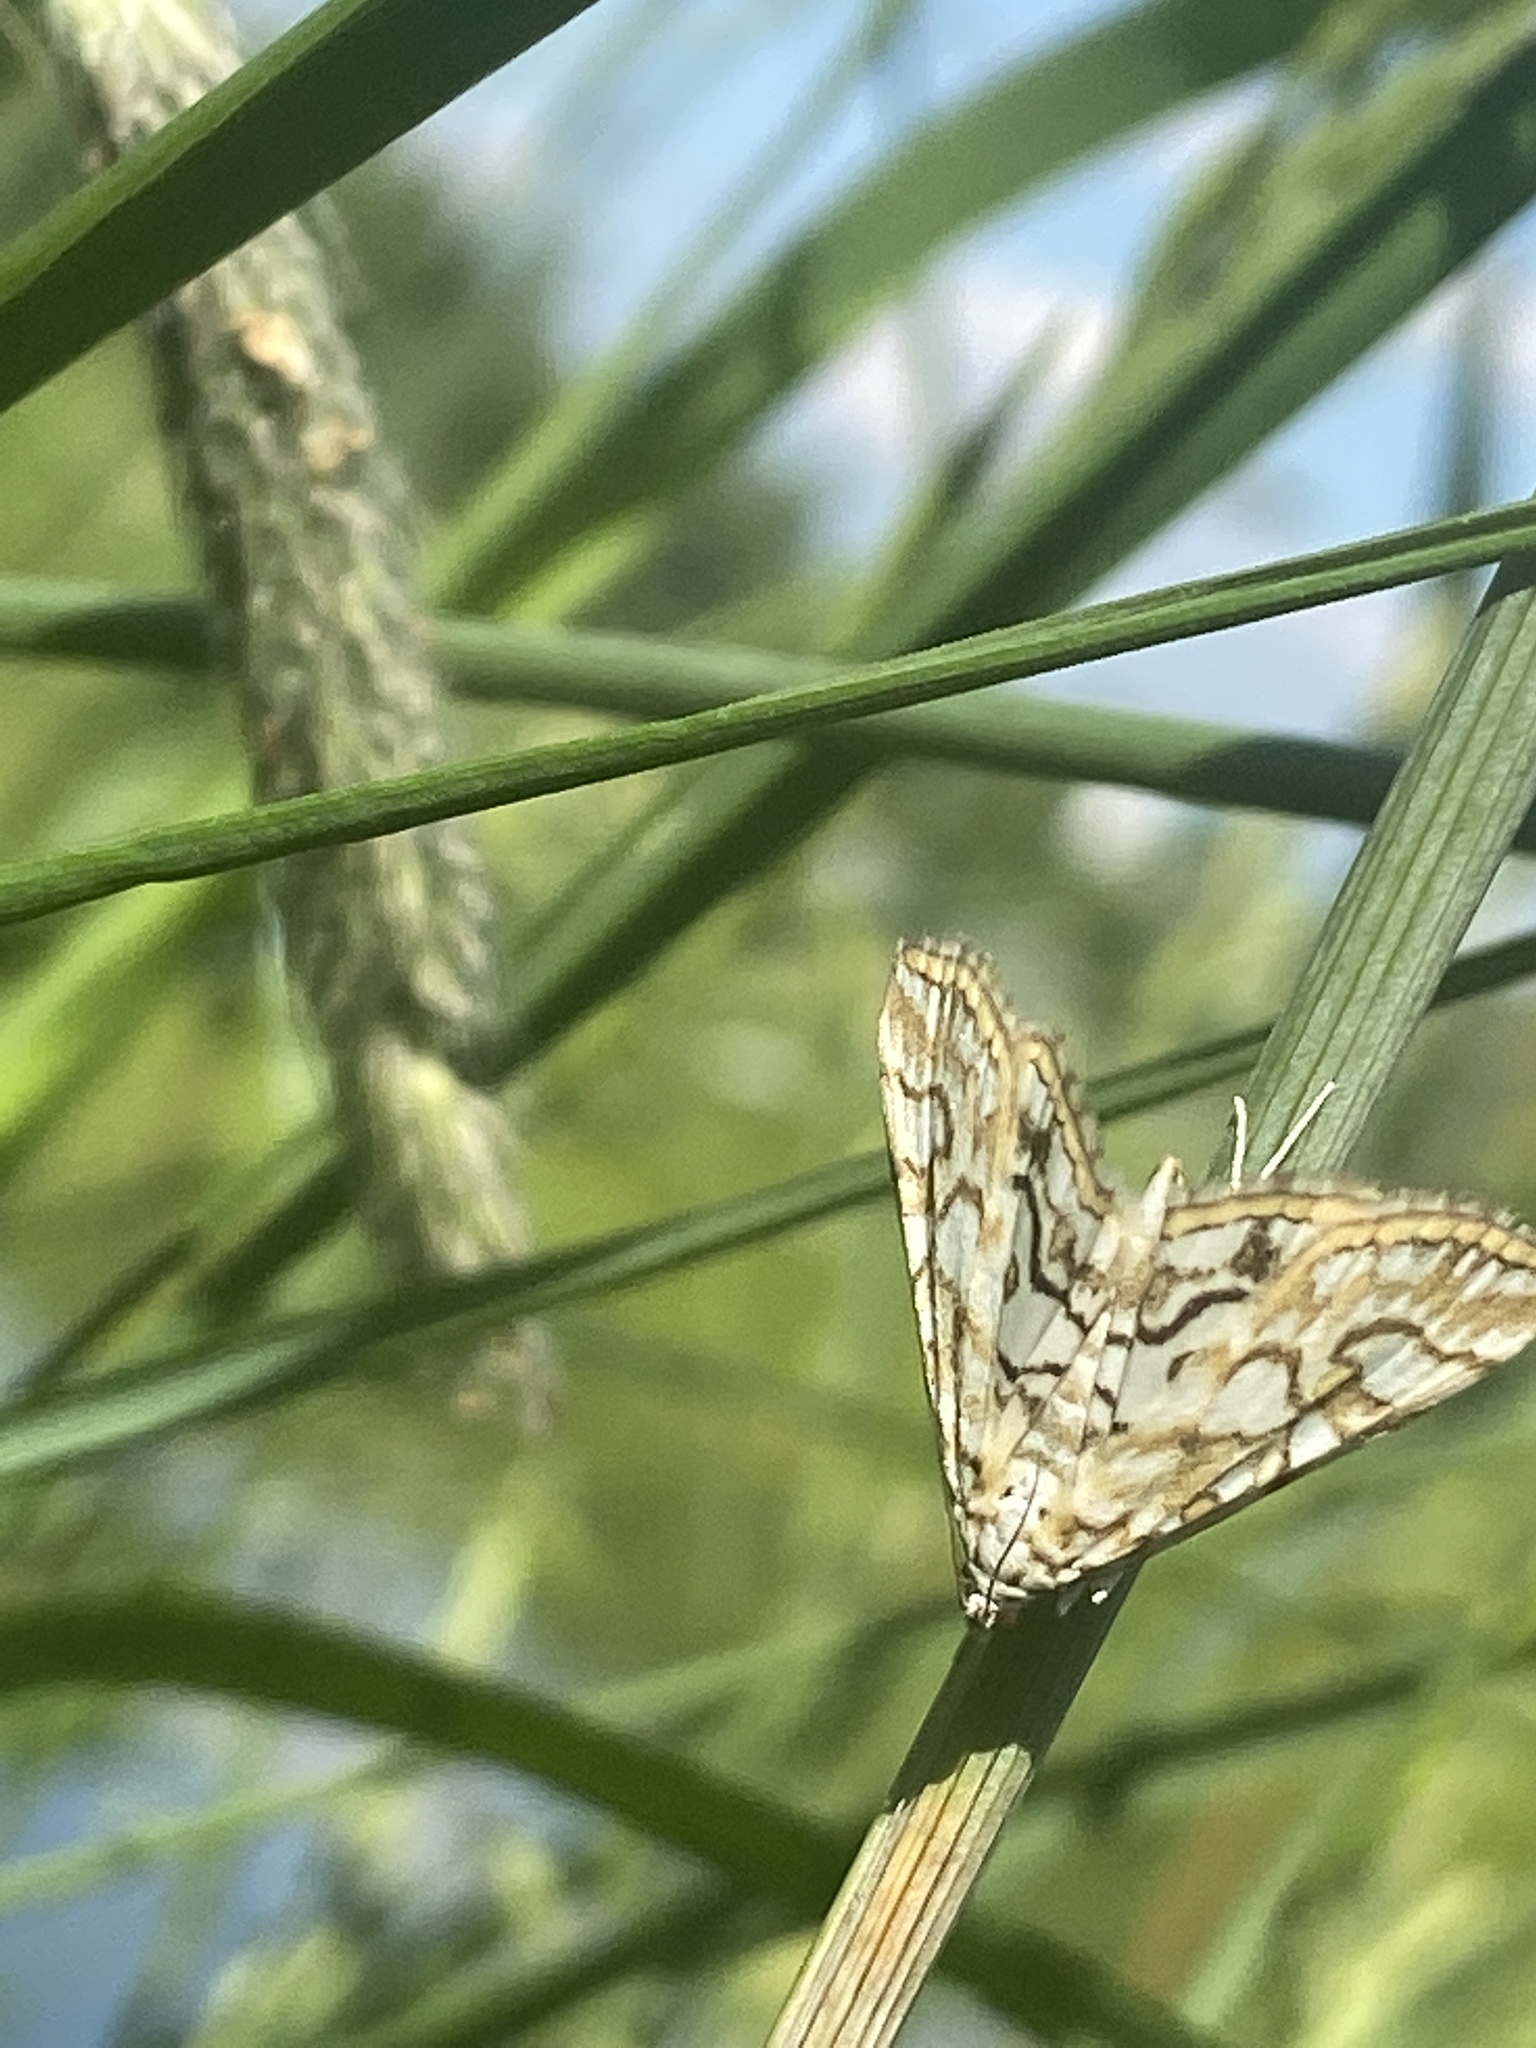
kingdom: Animalia
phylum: Arthropoda
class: Insecta
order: Lepidoptera
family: Crambidae
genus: Elophila
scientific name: Elophila nymphaeata
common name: Brown china-mark
